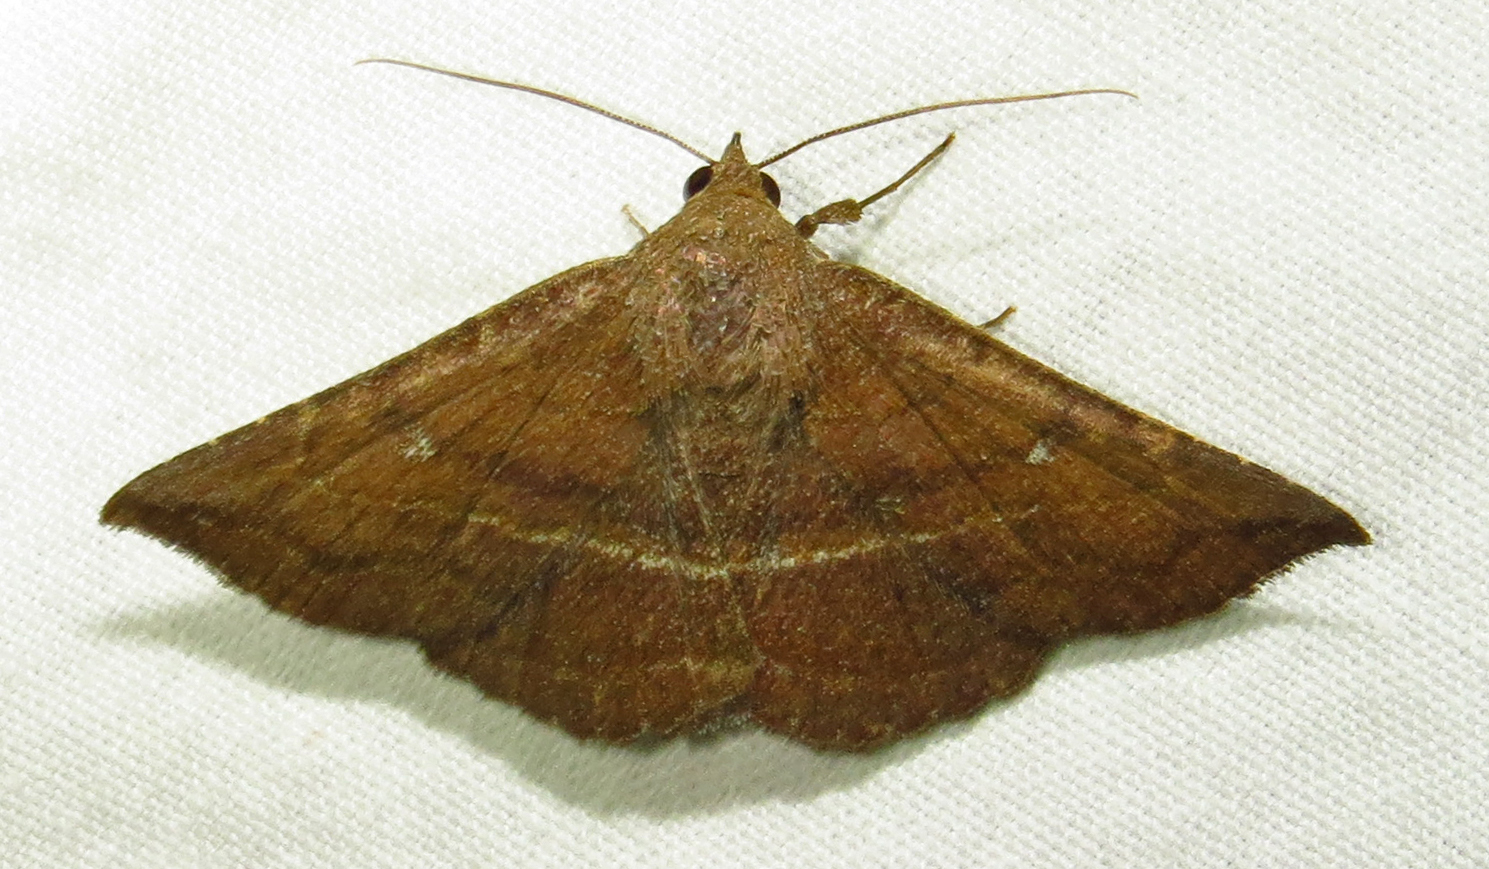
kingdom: Animalia
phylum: Arthropoda
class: Insecta
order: Lepidoptera
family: Erebidae
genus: Lesmone
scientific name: Lesmone detrahens
